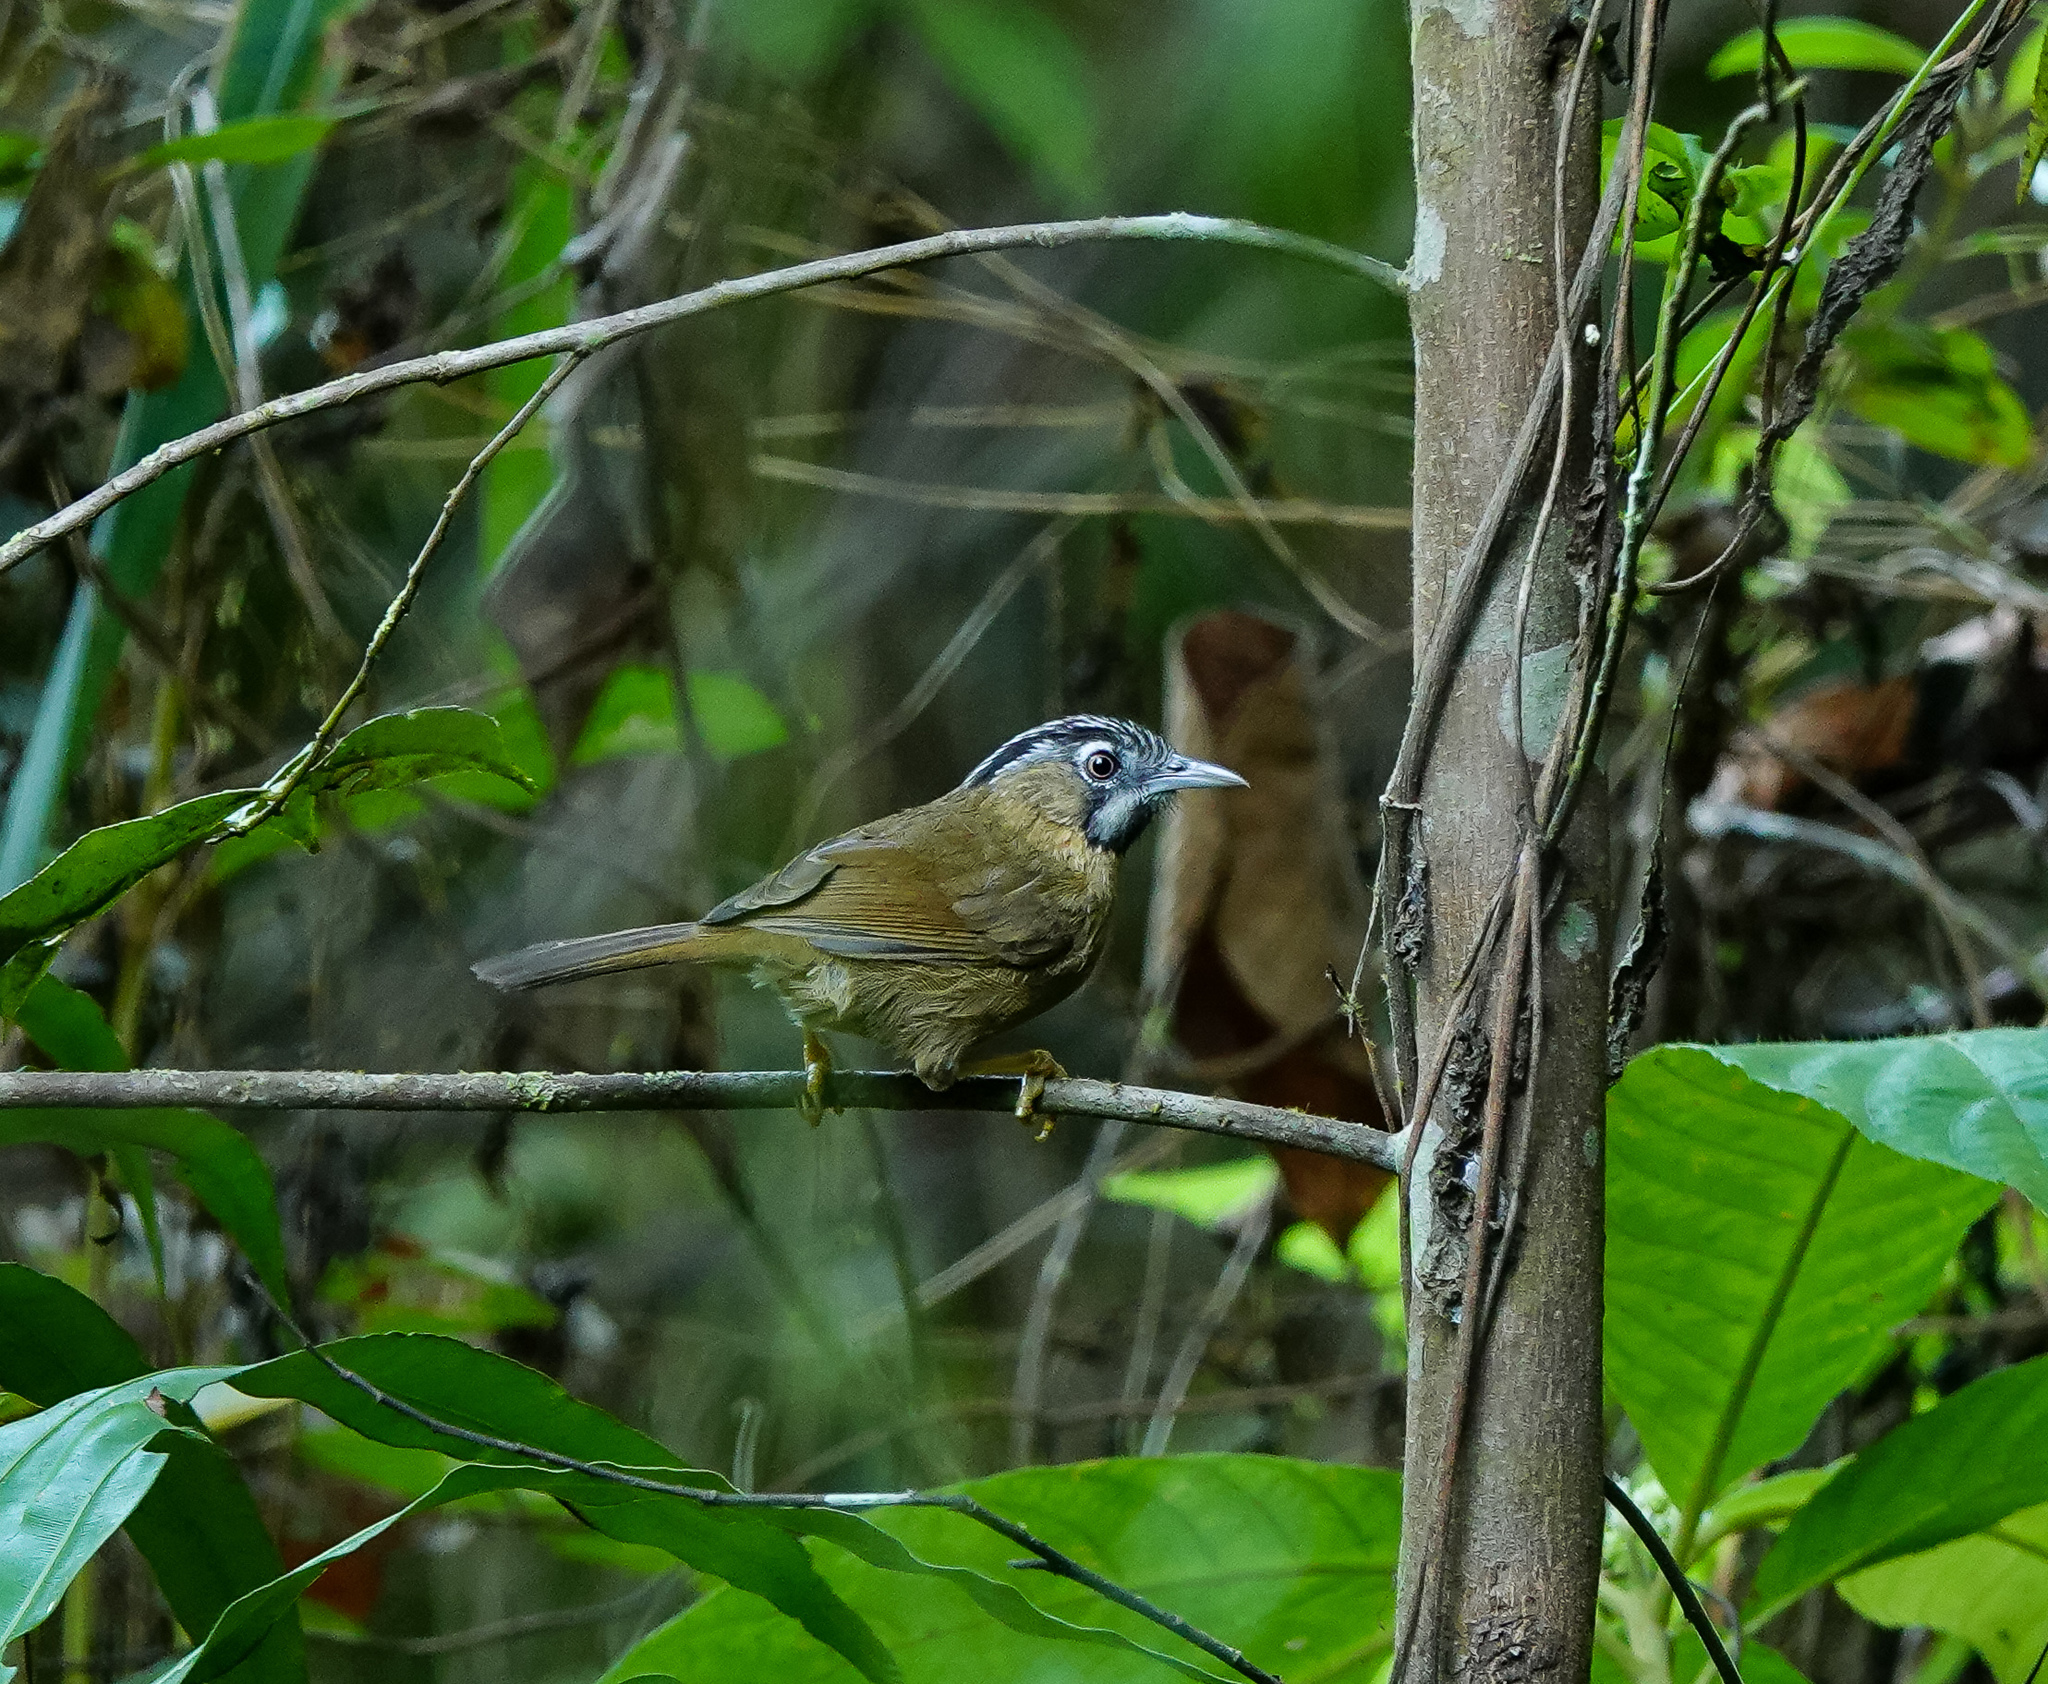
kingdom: Animalia
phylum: Chordata
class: Aves
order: Passeriformes
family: Timaliidae
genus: Stachyris
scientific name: Stachyris nigriceps
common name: Grey-throated babbler
